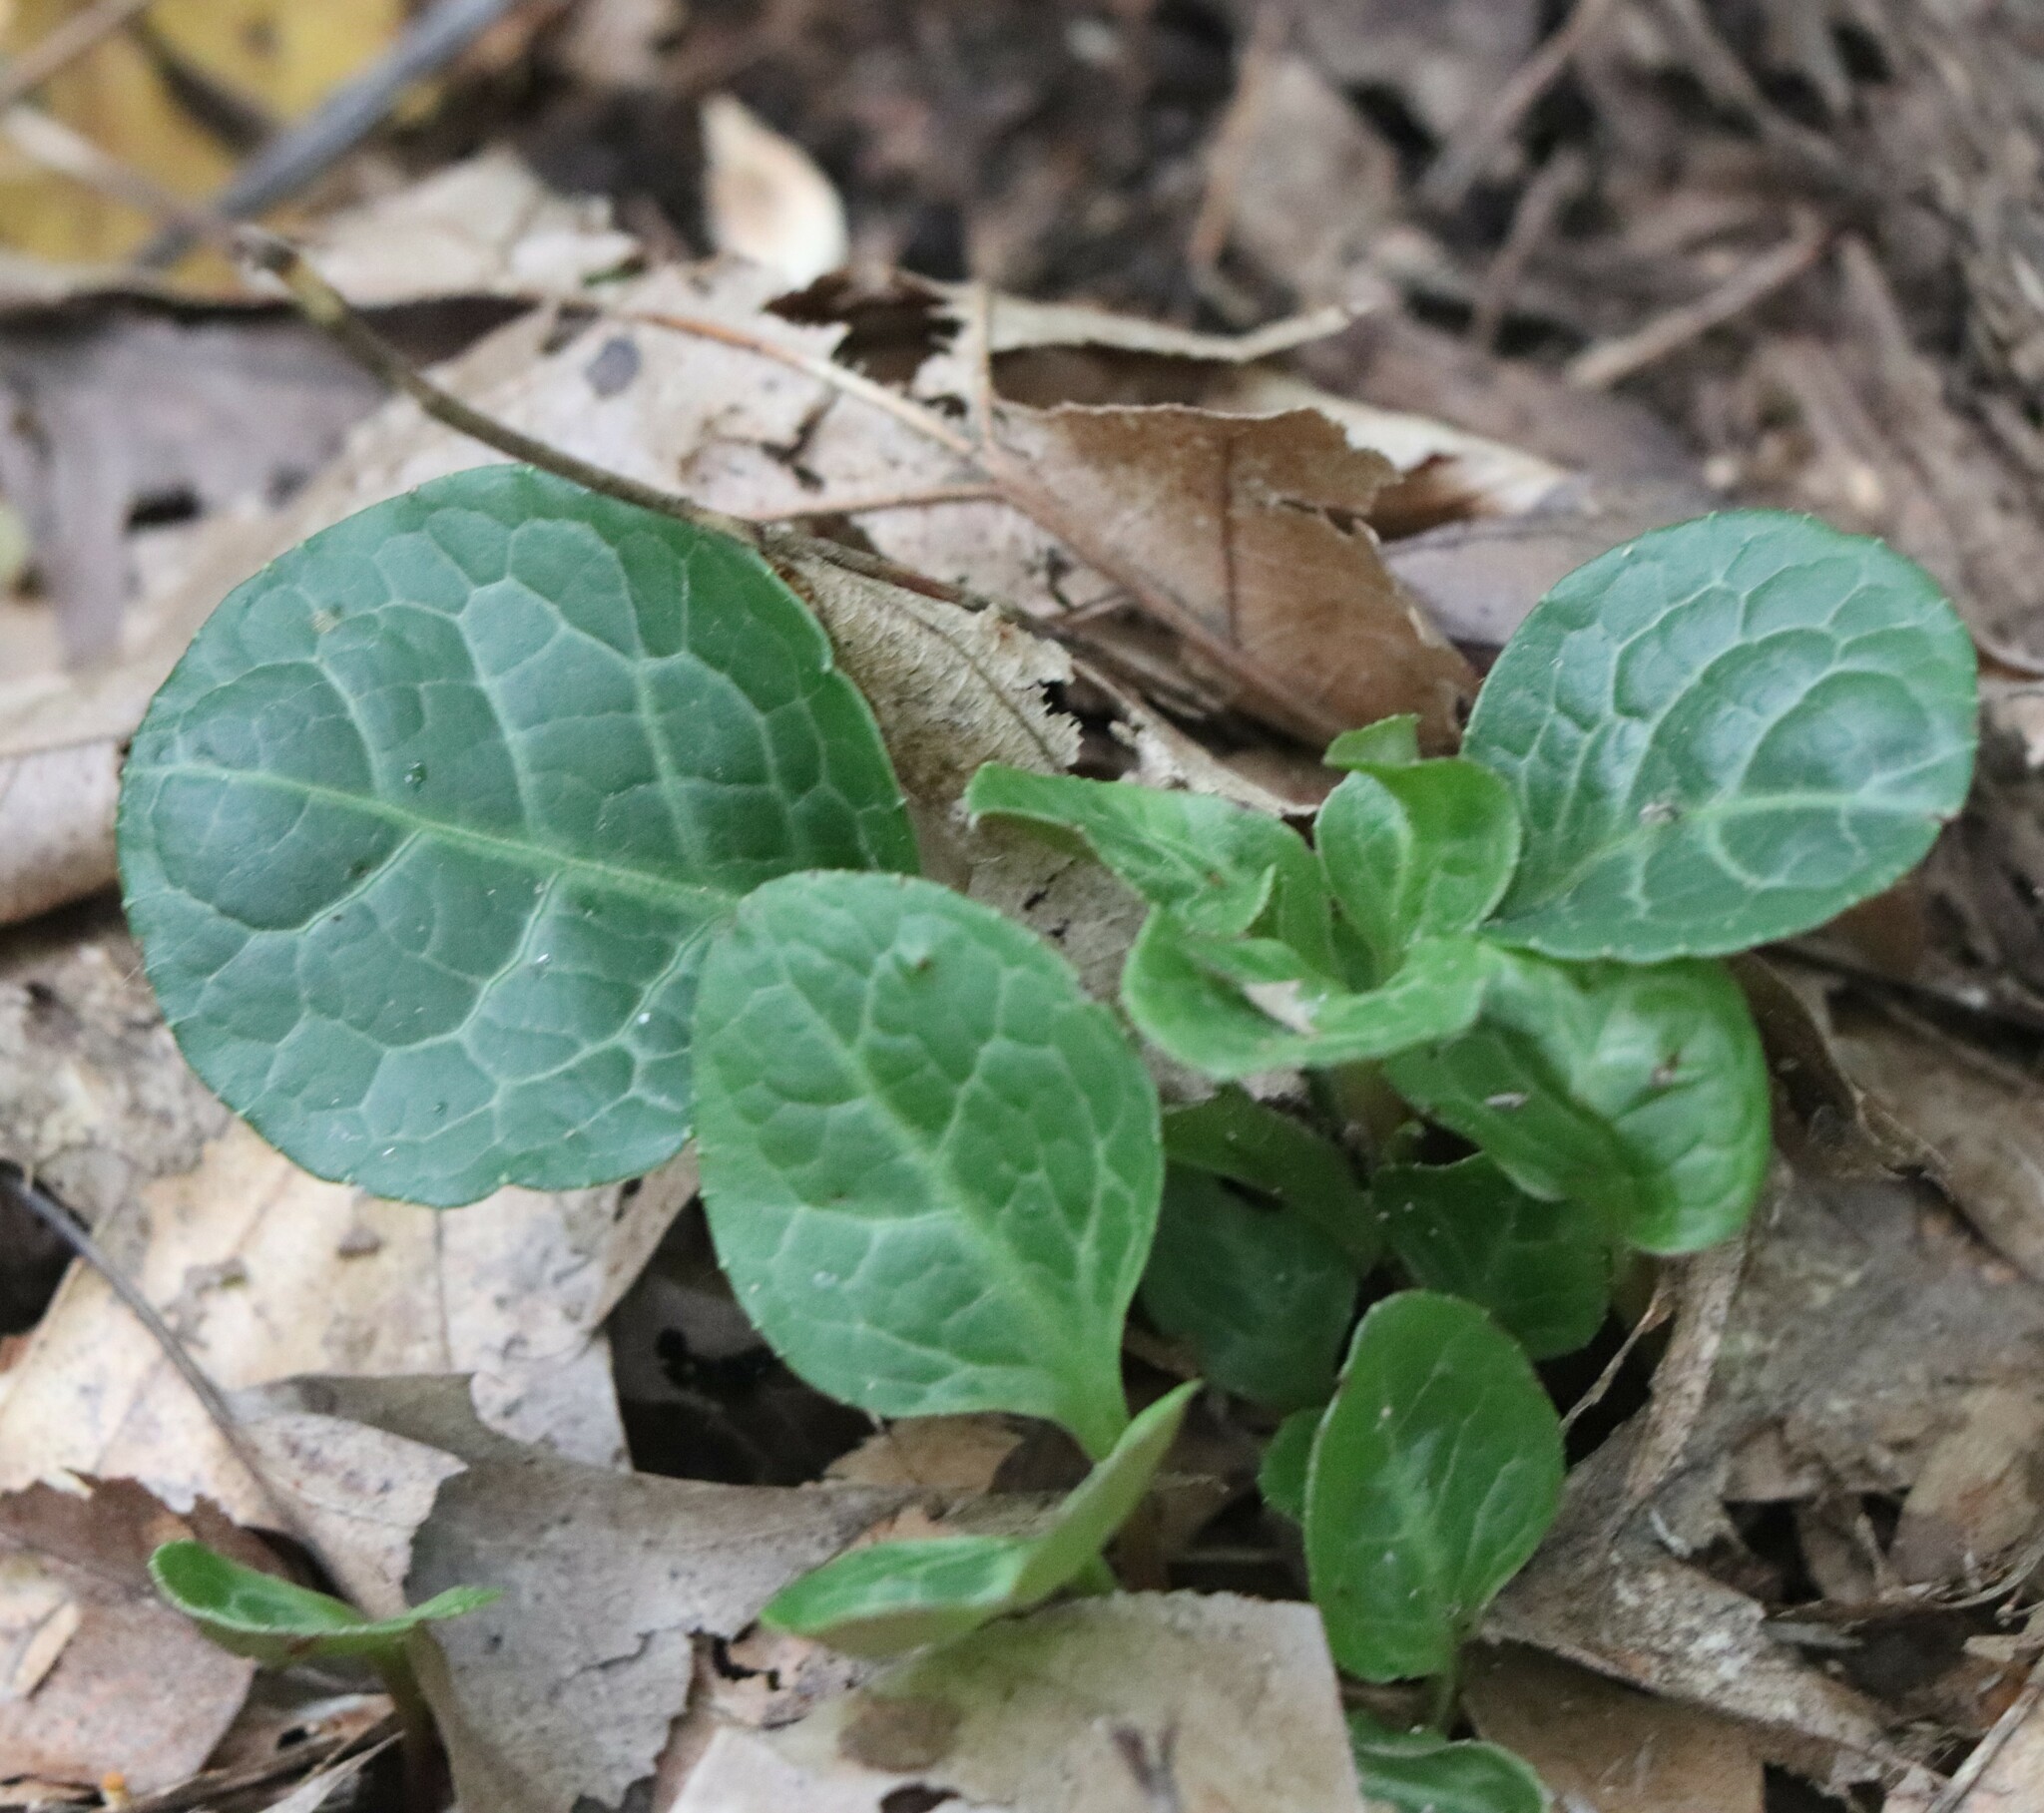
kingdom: Plantae
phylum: Tracheophyta
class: Magnoliopsida
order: Ericales
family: Ericaceae
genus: Pyrola
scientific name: Pyrola americana
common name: American wintergreen
